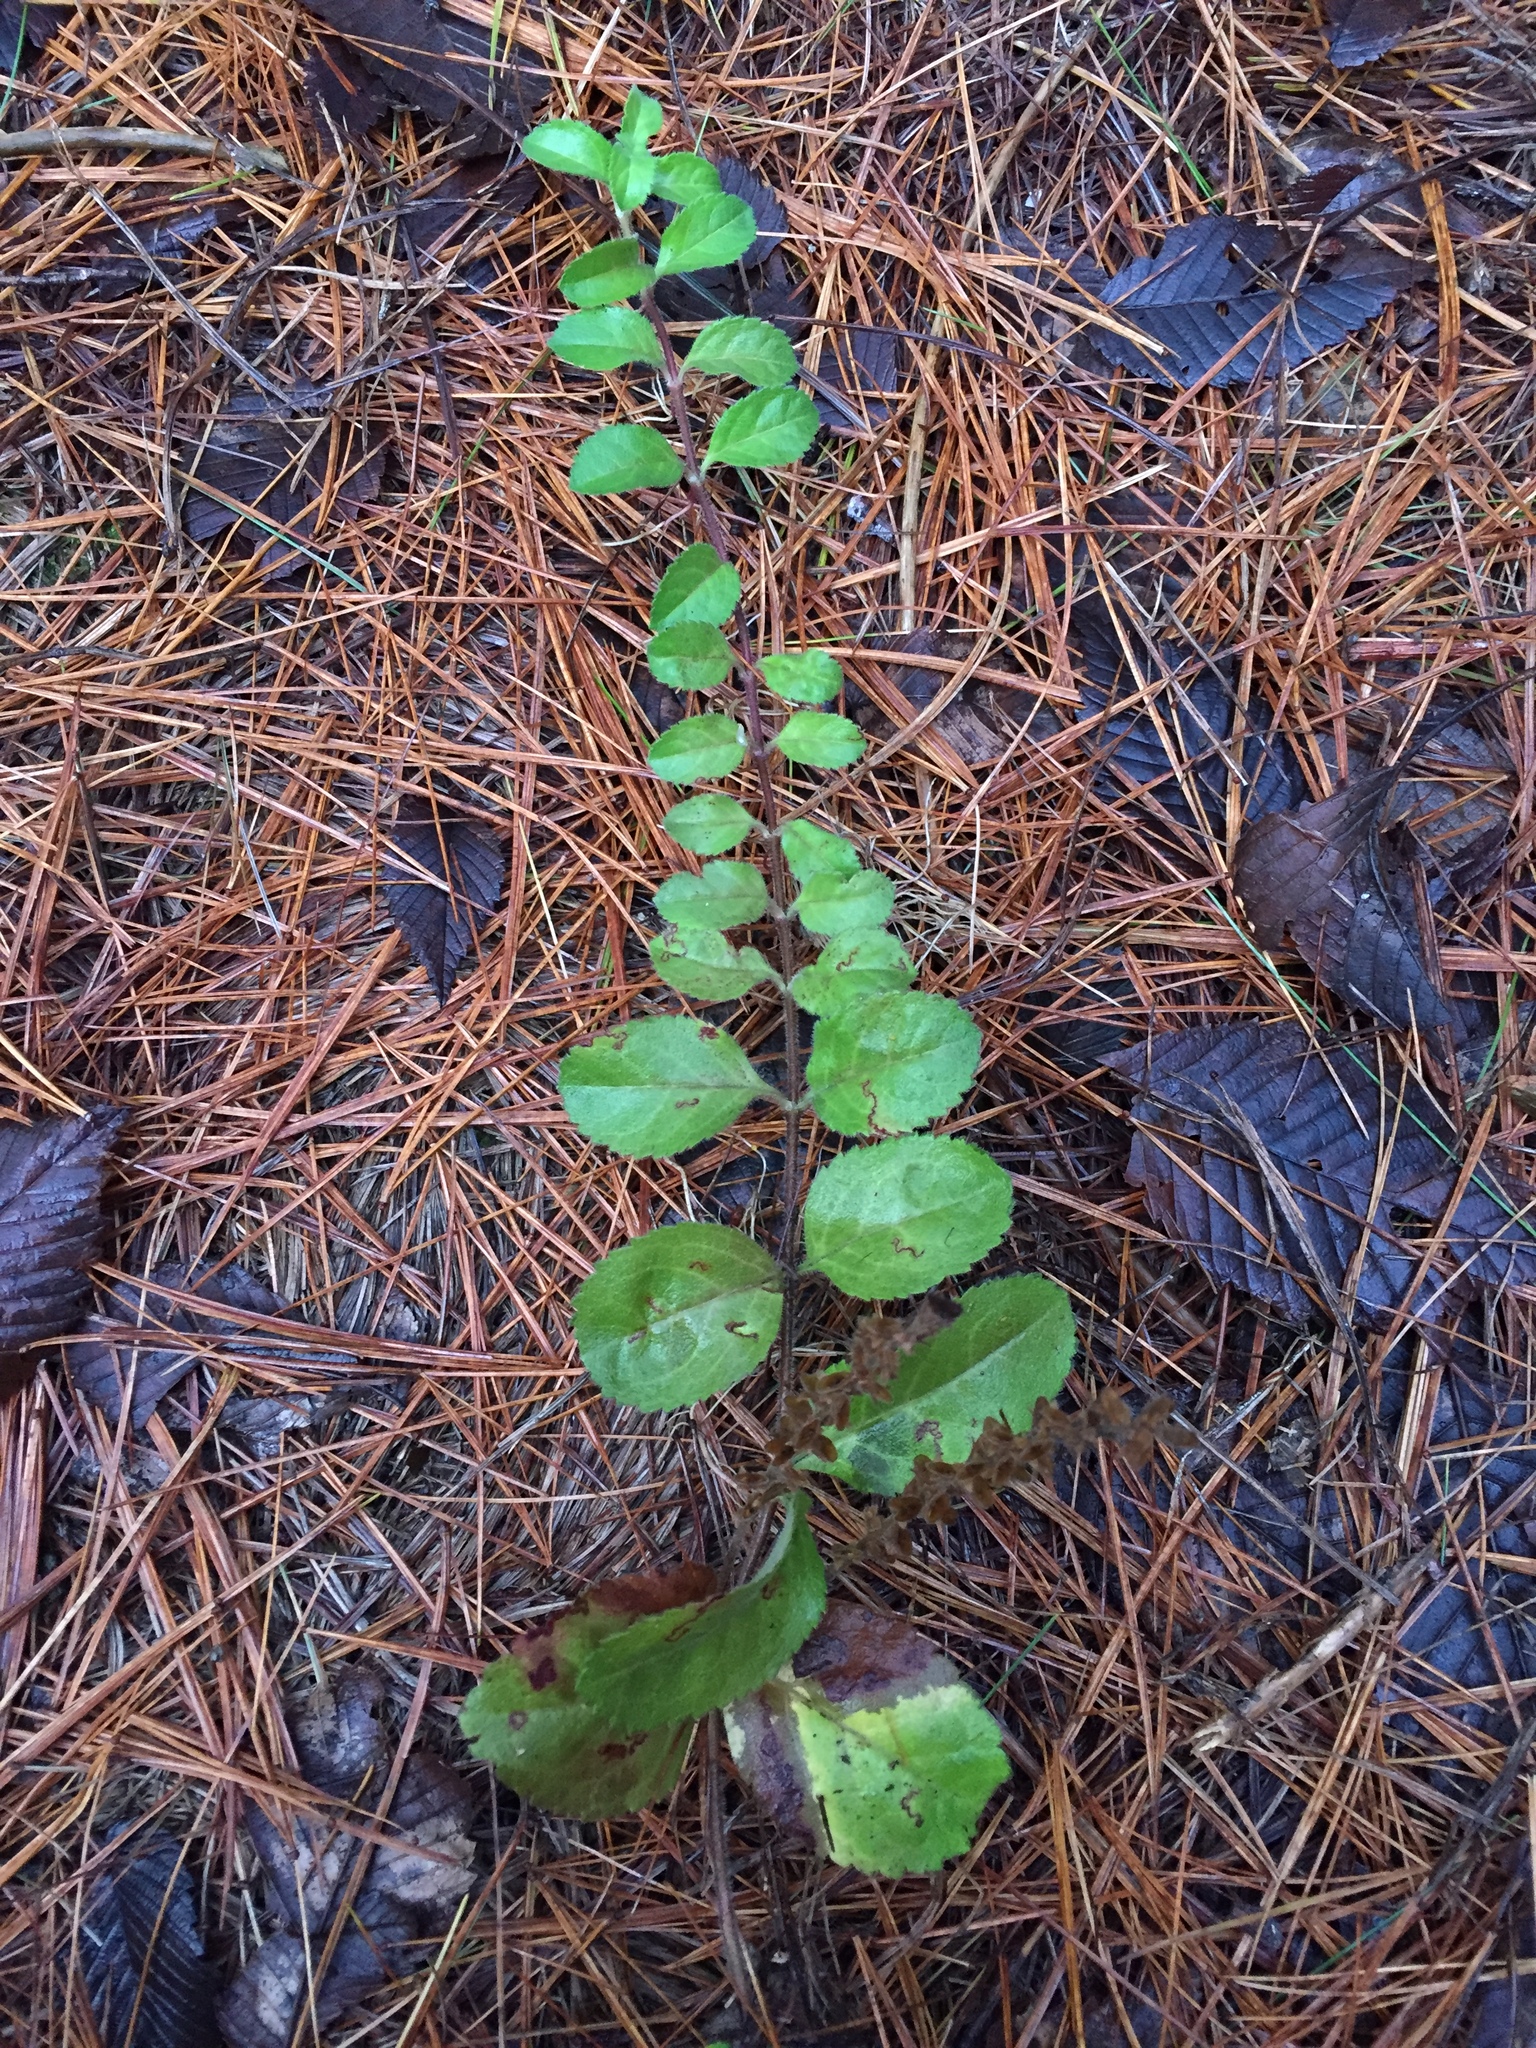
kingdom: Plantae
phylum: Tracheophyta
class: Magnoliopsida
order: Lamiales
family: Plantaginaceae
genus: Veronica
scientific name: Veronica officinalis
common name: Common speedwell
